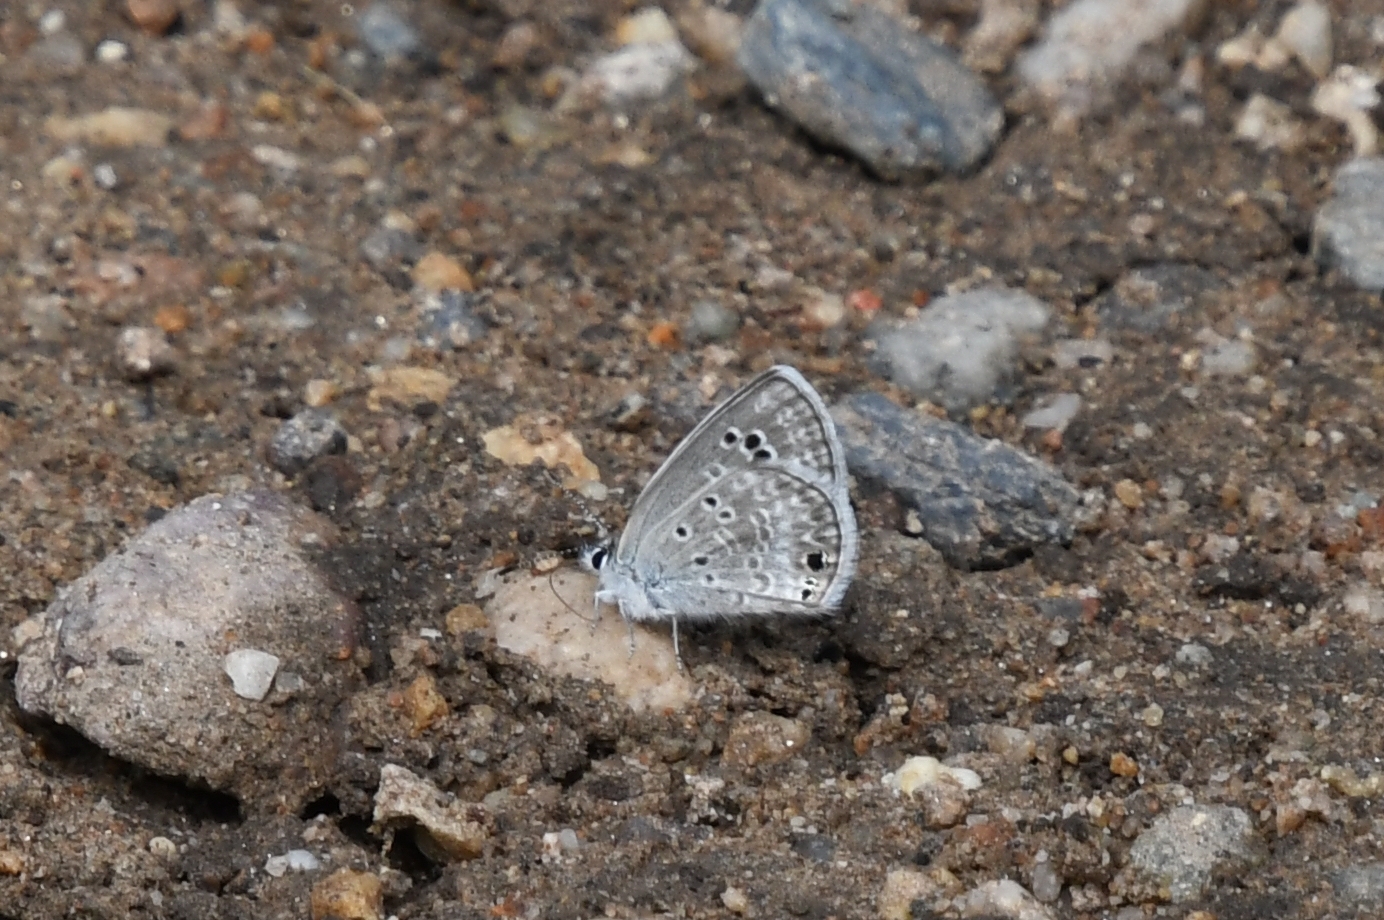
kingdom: Animalia
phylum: Arthropoda
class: Insecta
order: Lepidoptera
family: Lycaenidae
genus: Echinargus
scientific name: Echinargus isola
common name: Reakirt's blue
